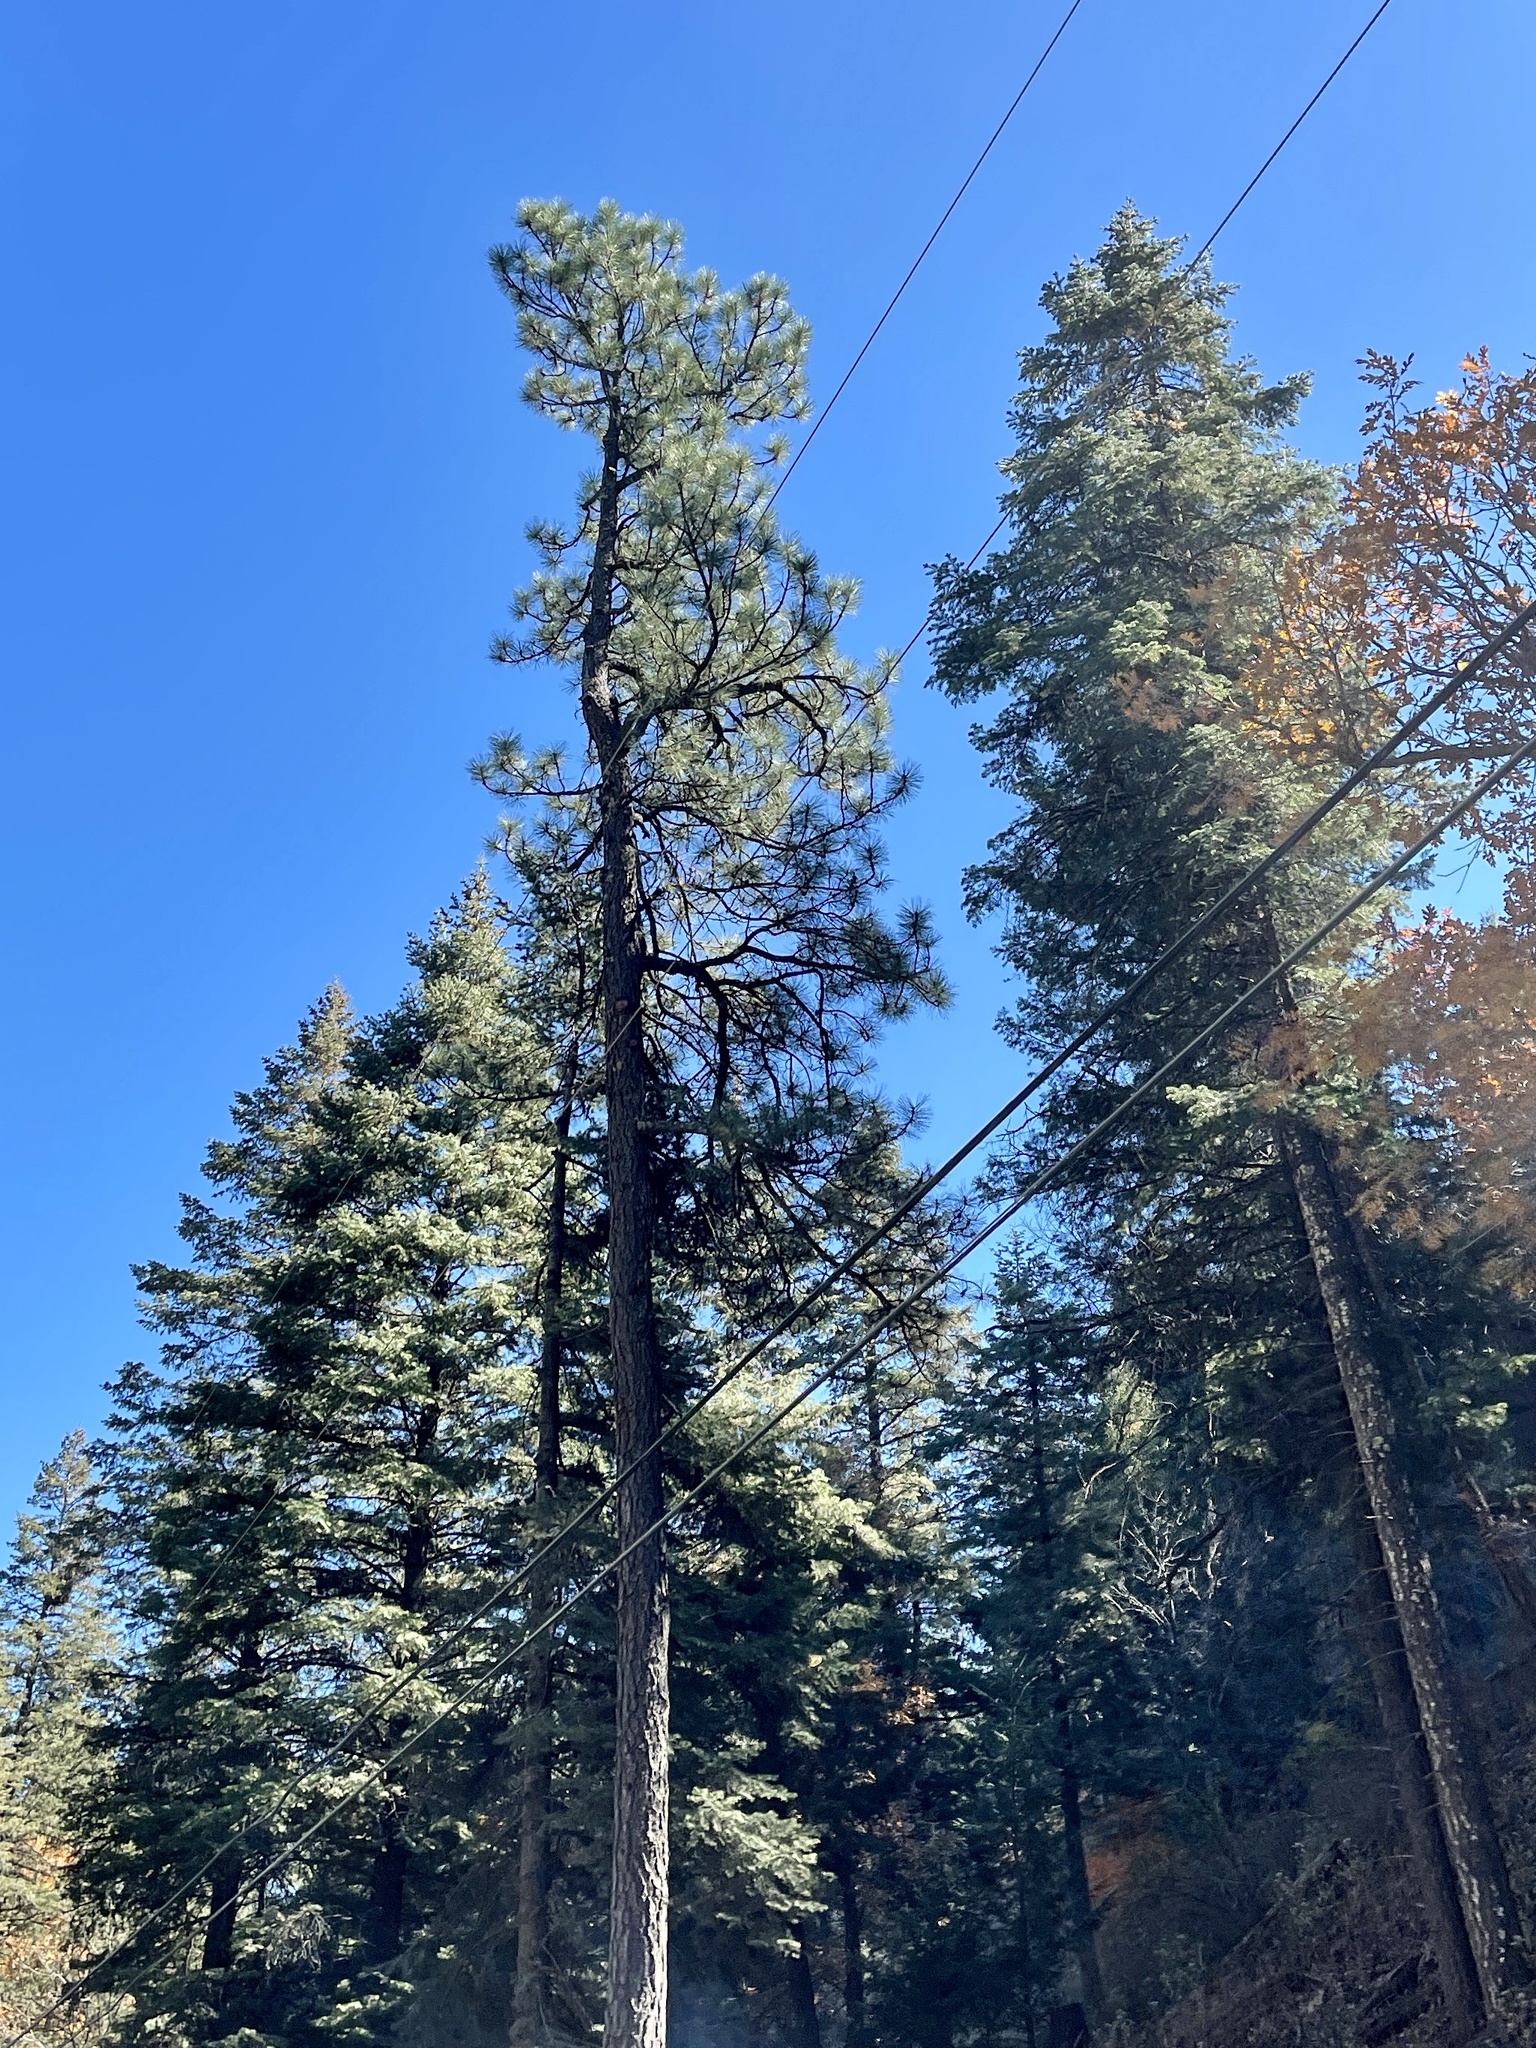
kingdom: Plantae
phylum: Tracheophyta
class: Pinopsida
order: Pinales
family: Pinaceae
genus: Pinus
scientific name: Pinus ponderosa
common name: Western yellow-pine
